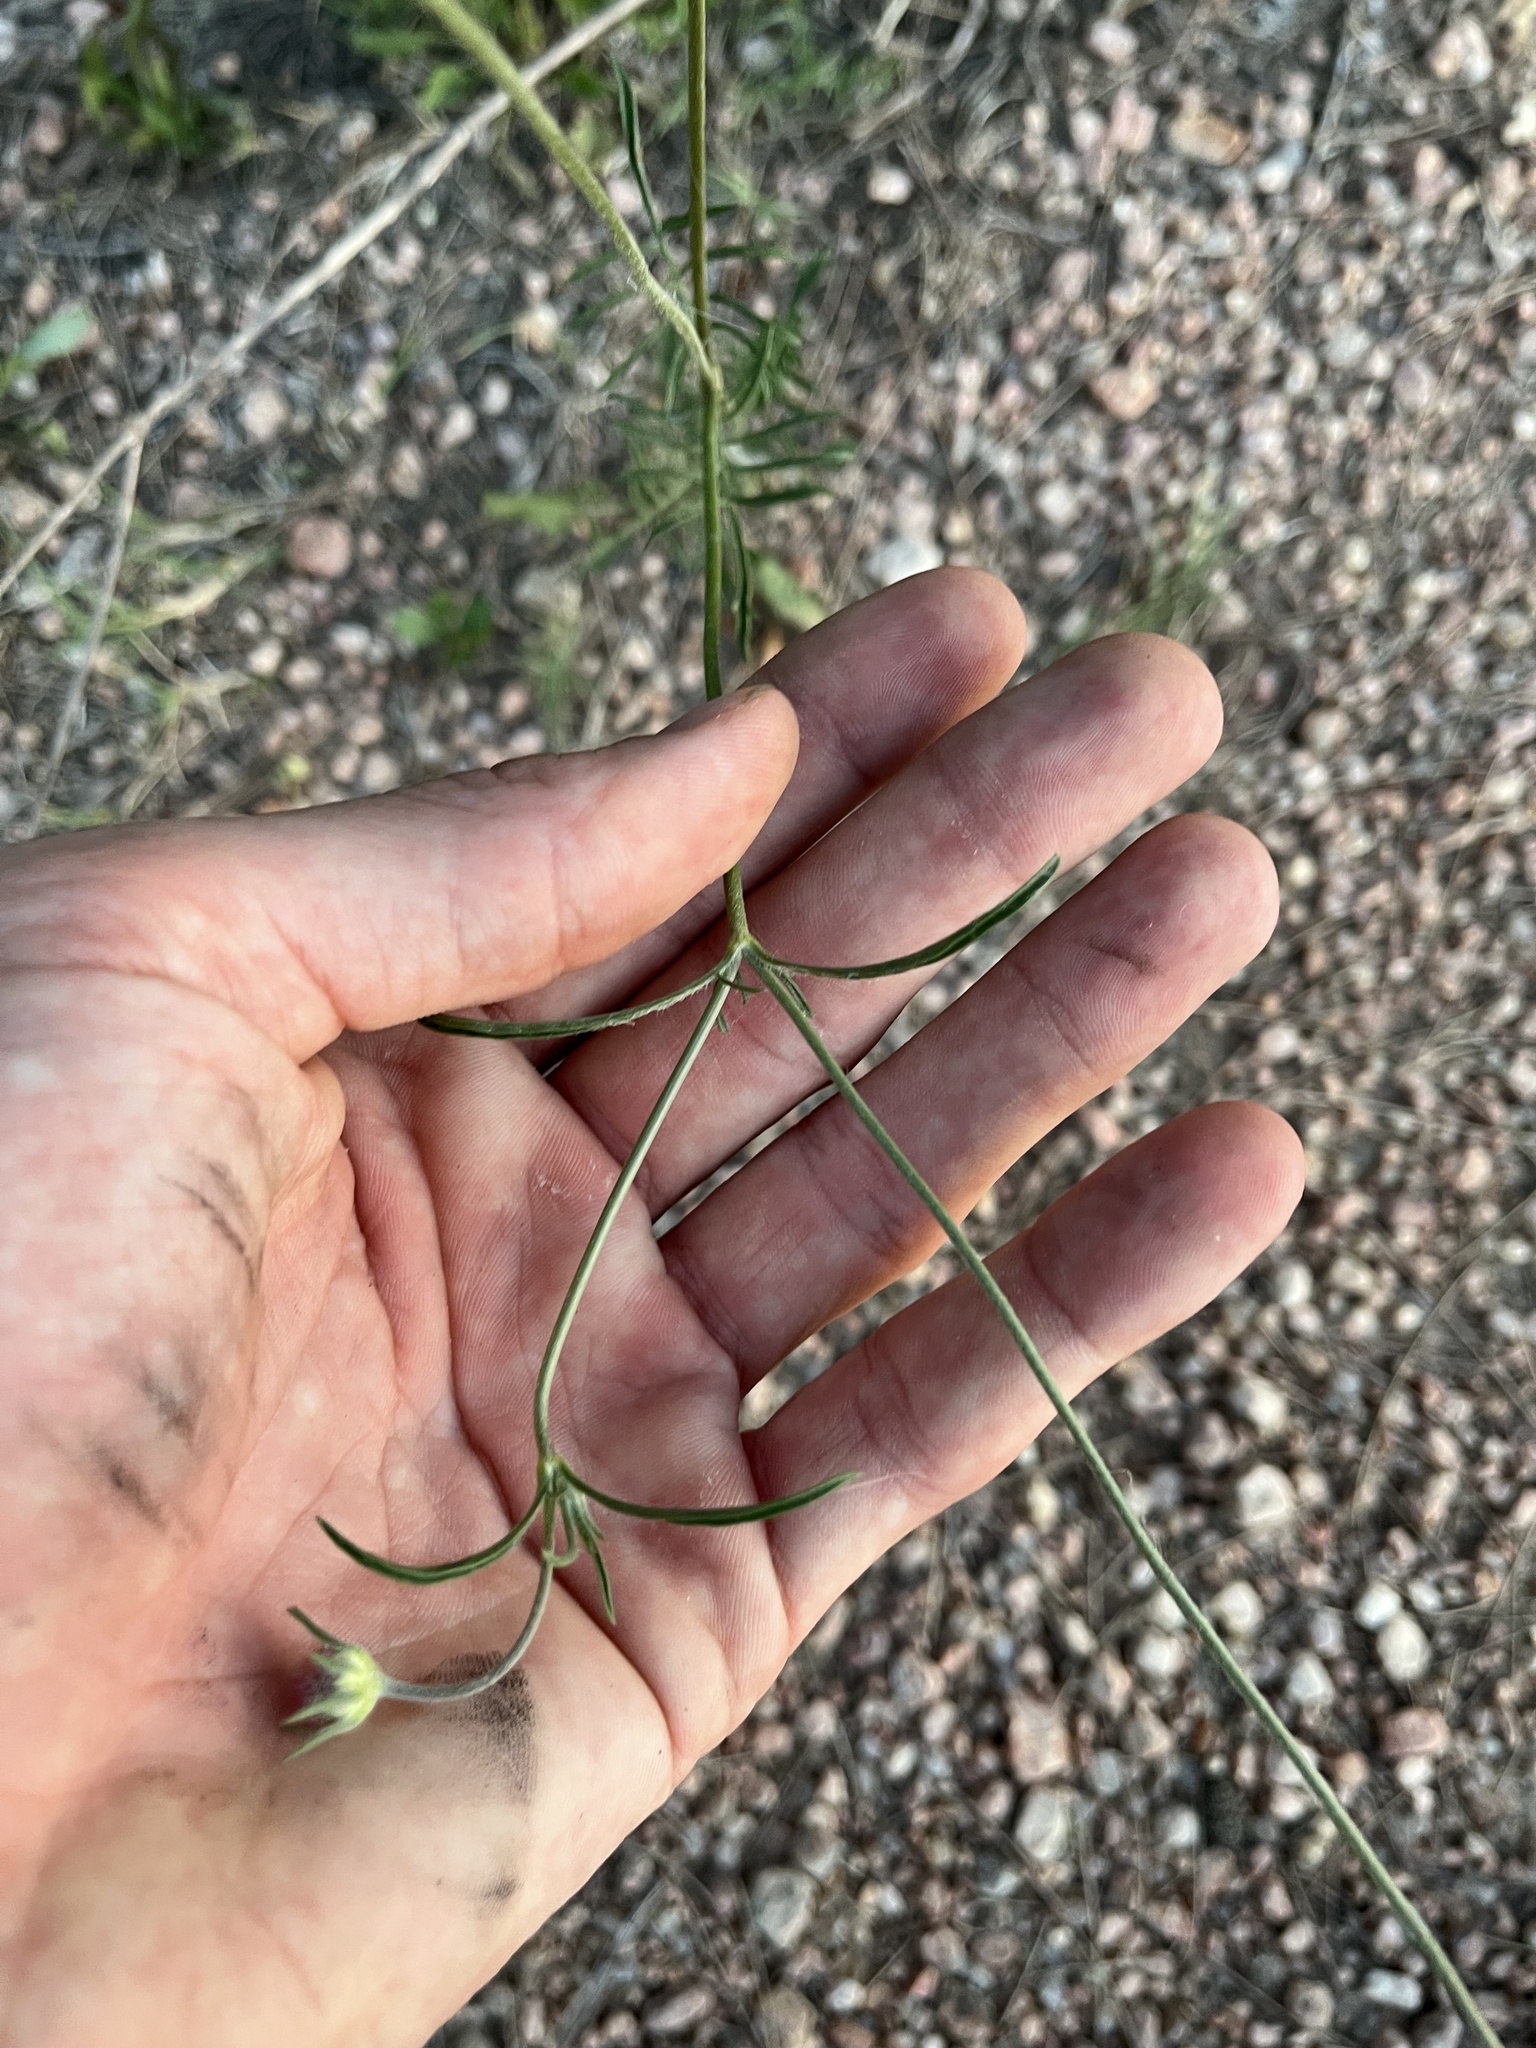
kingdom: Plantae
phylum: Tracheophyta
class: Magnoliopsida
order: Dipsacales
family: Caprifoliaceae
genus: Sixalix
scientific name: Sixalix atropurpurea
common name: Sweet scabious
